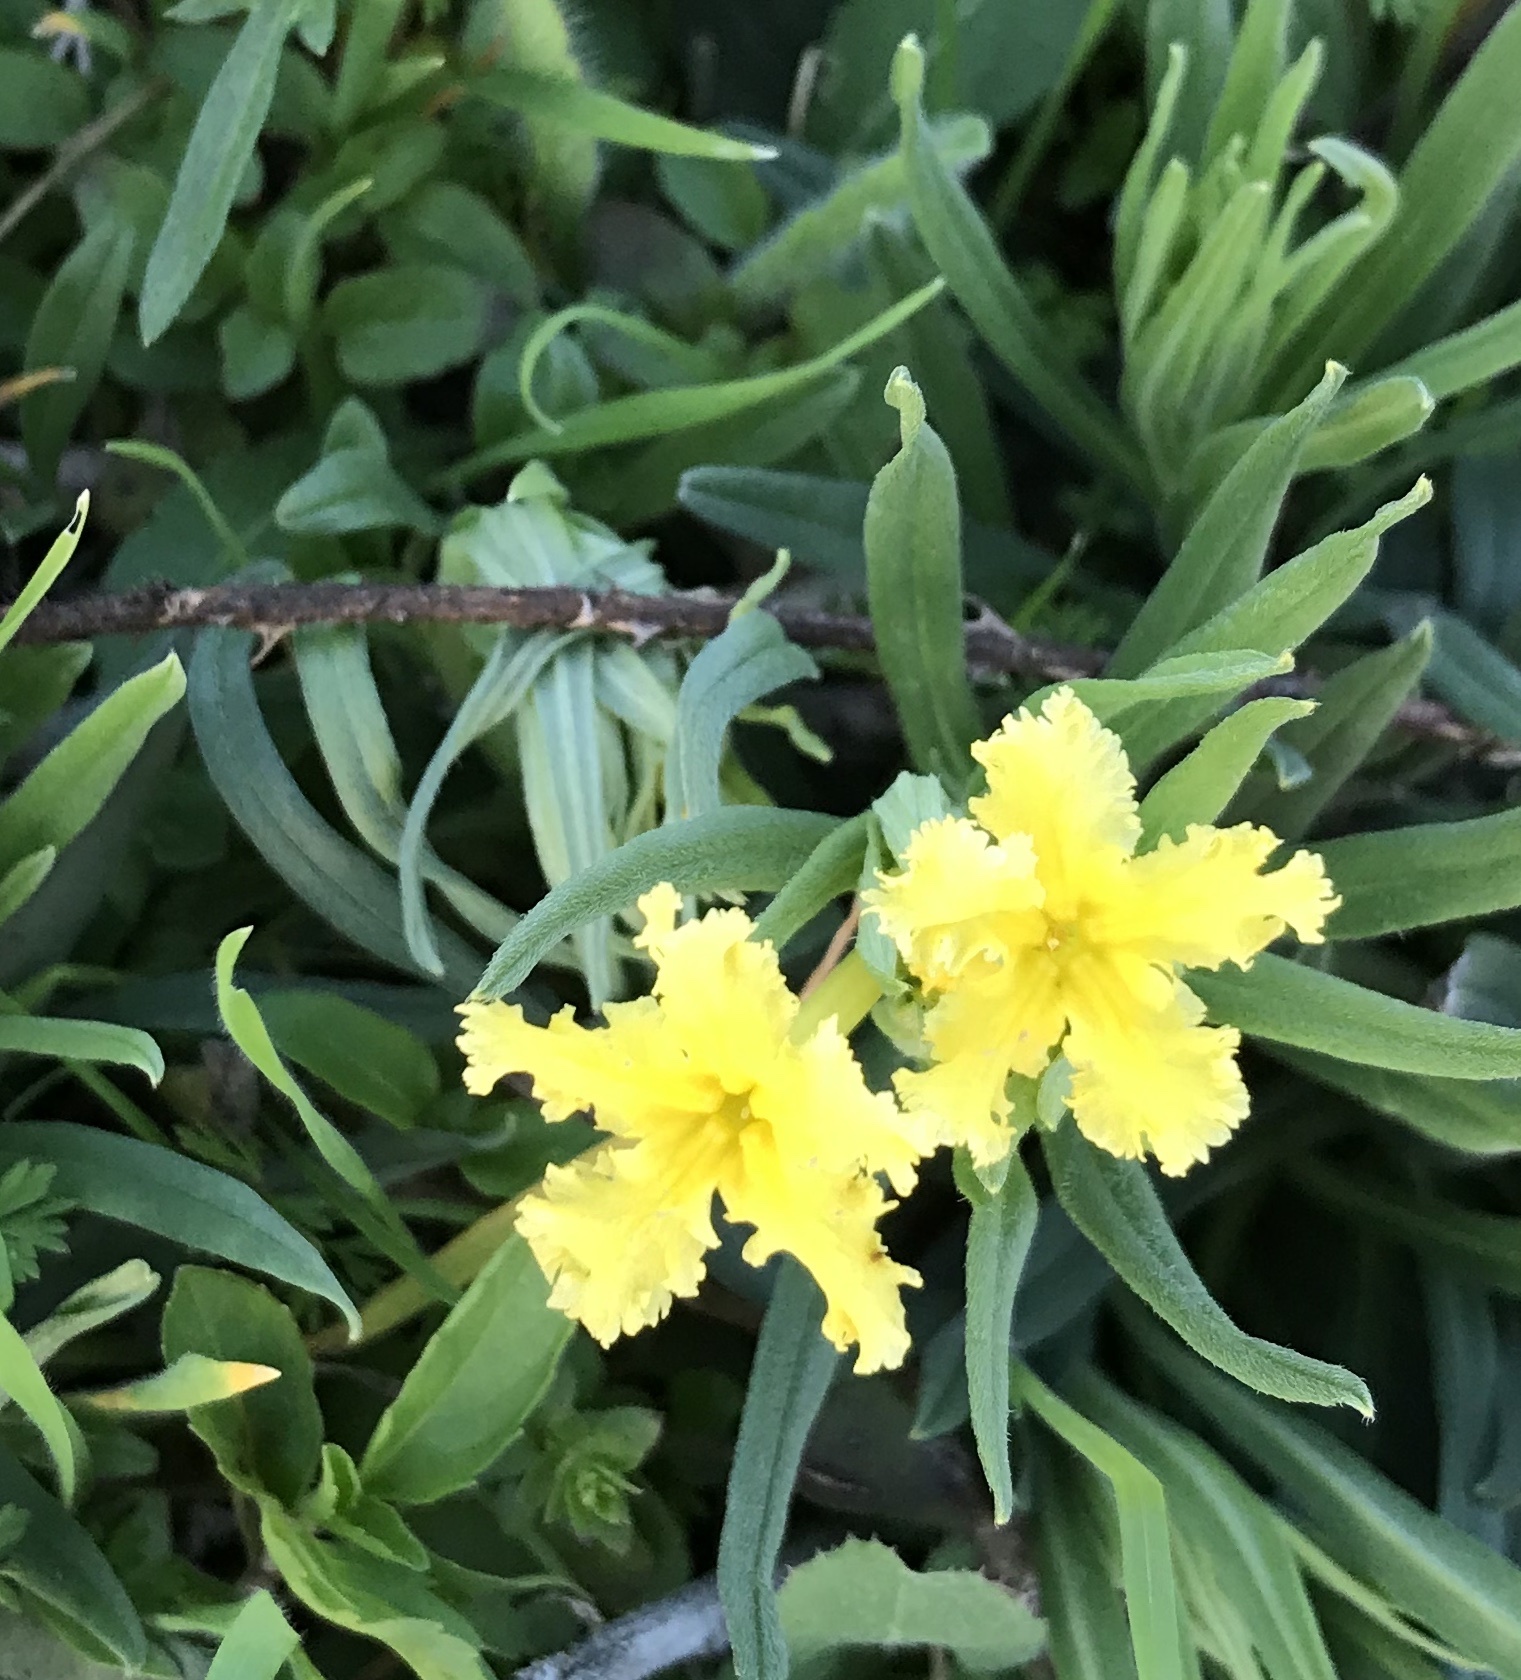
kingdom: Plantae
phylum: Tracheophyta
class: Magnoliopsida
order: Boraginales
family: Boraginaceae
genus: Lithospermum
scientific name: Lithospermum incisum
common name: Fringed gromwell
